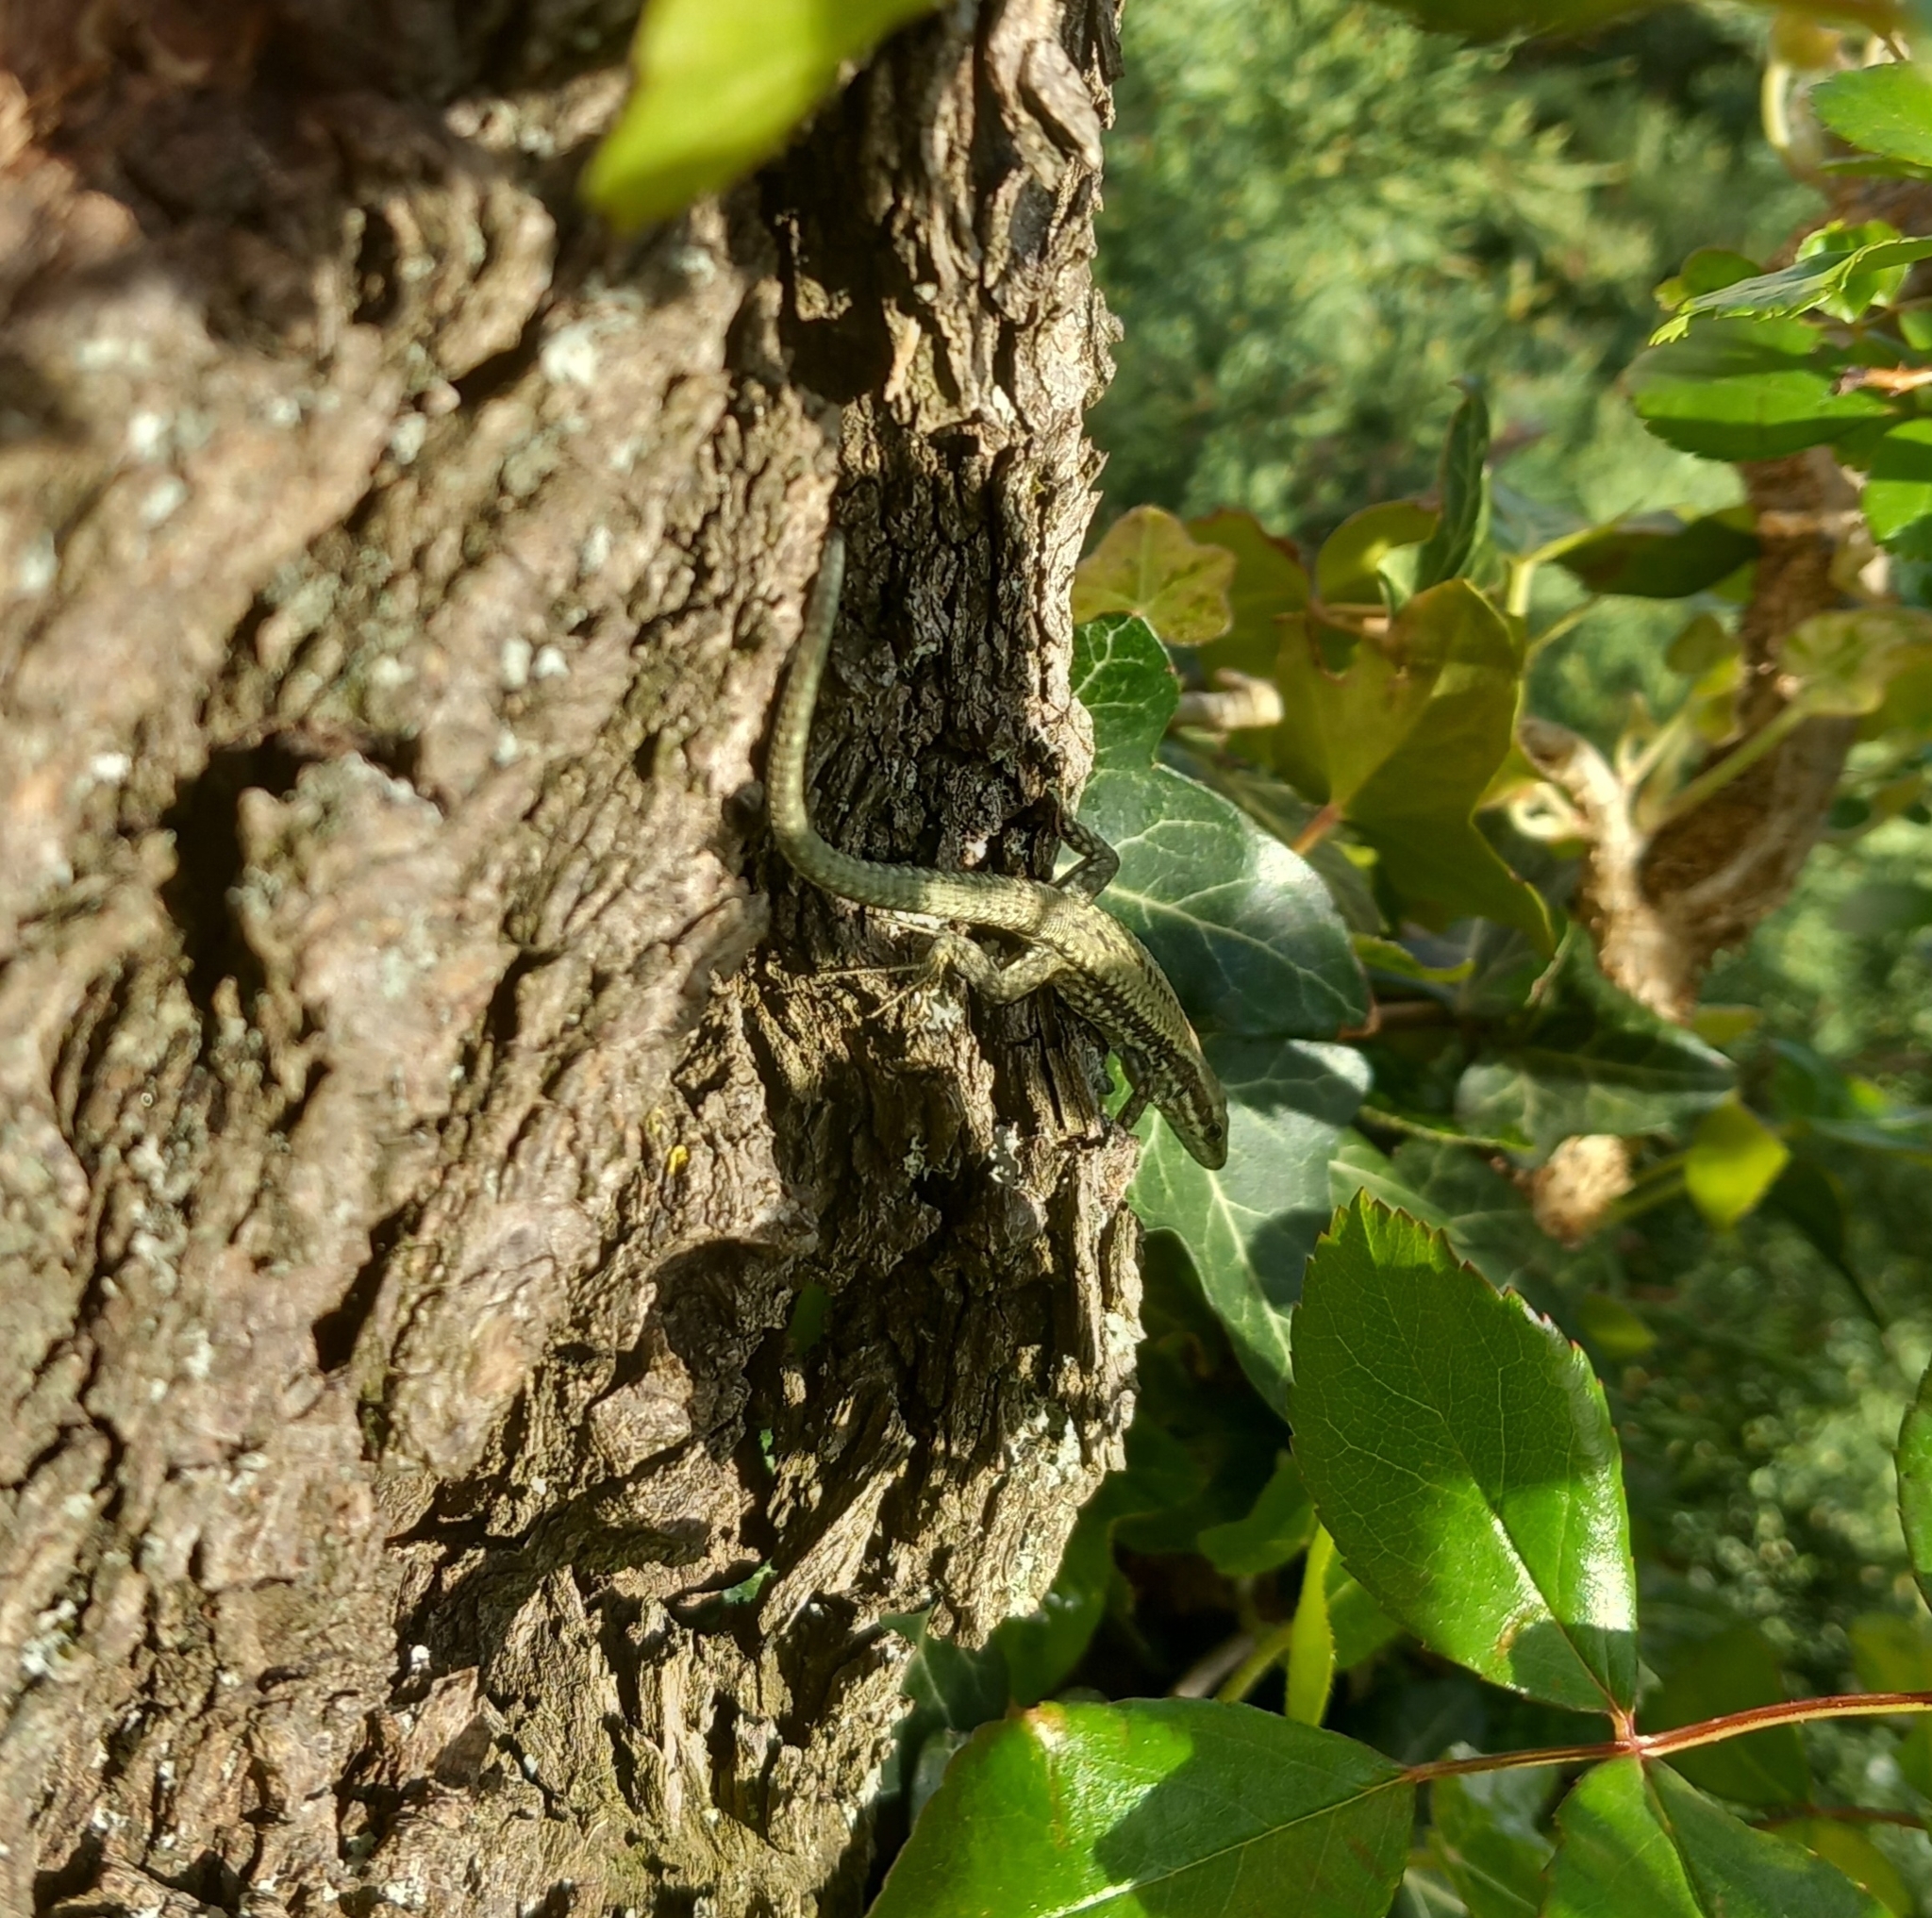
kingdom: Animalia
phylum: Chordata
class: Squamata
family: Lacertidae
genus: Podarcis
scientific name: Podarcis muralis
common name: Common wall lizard
